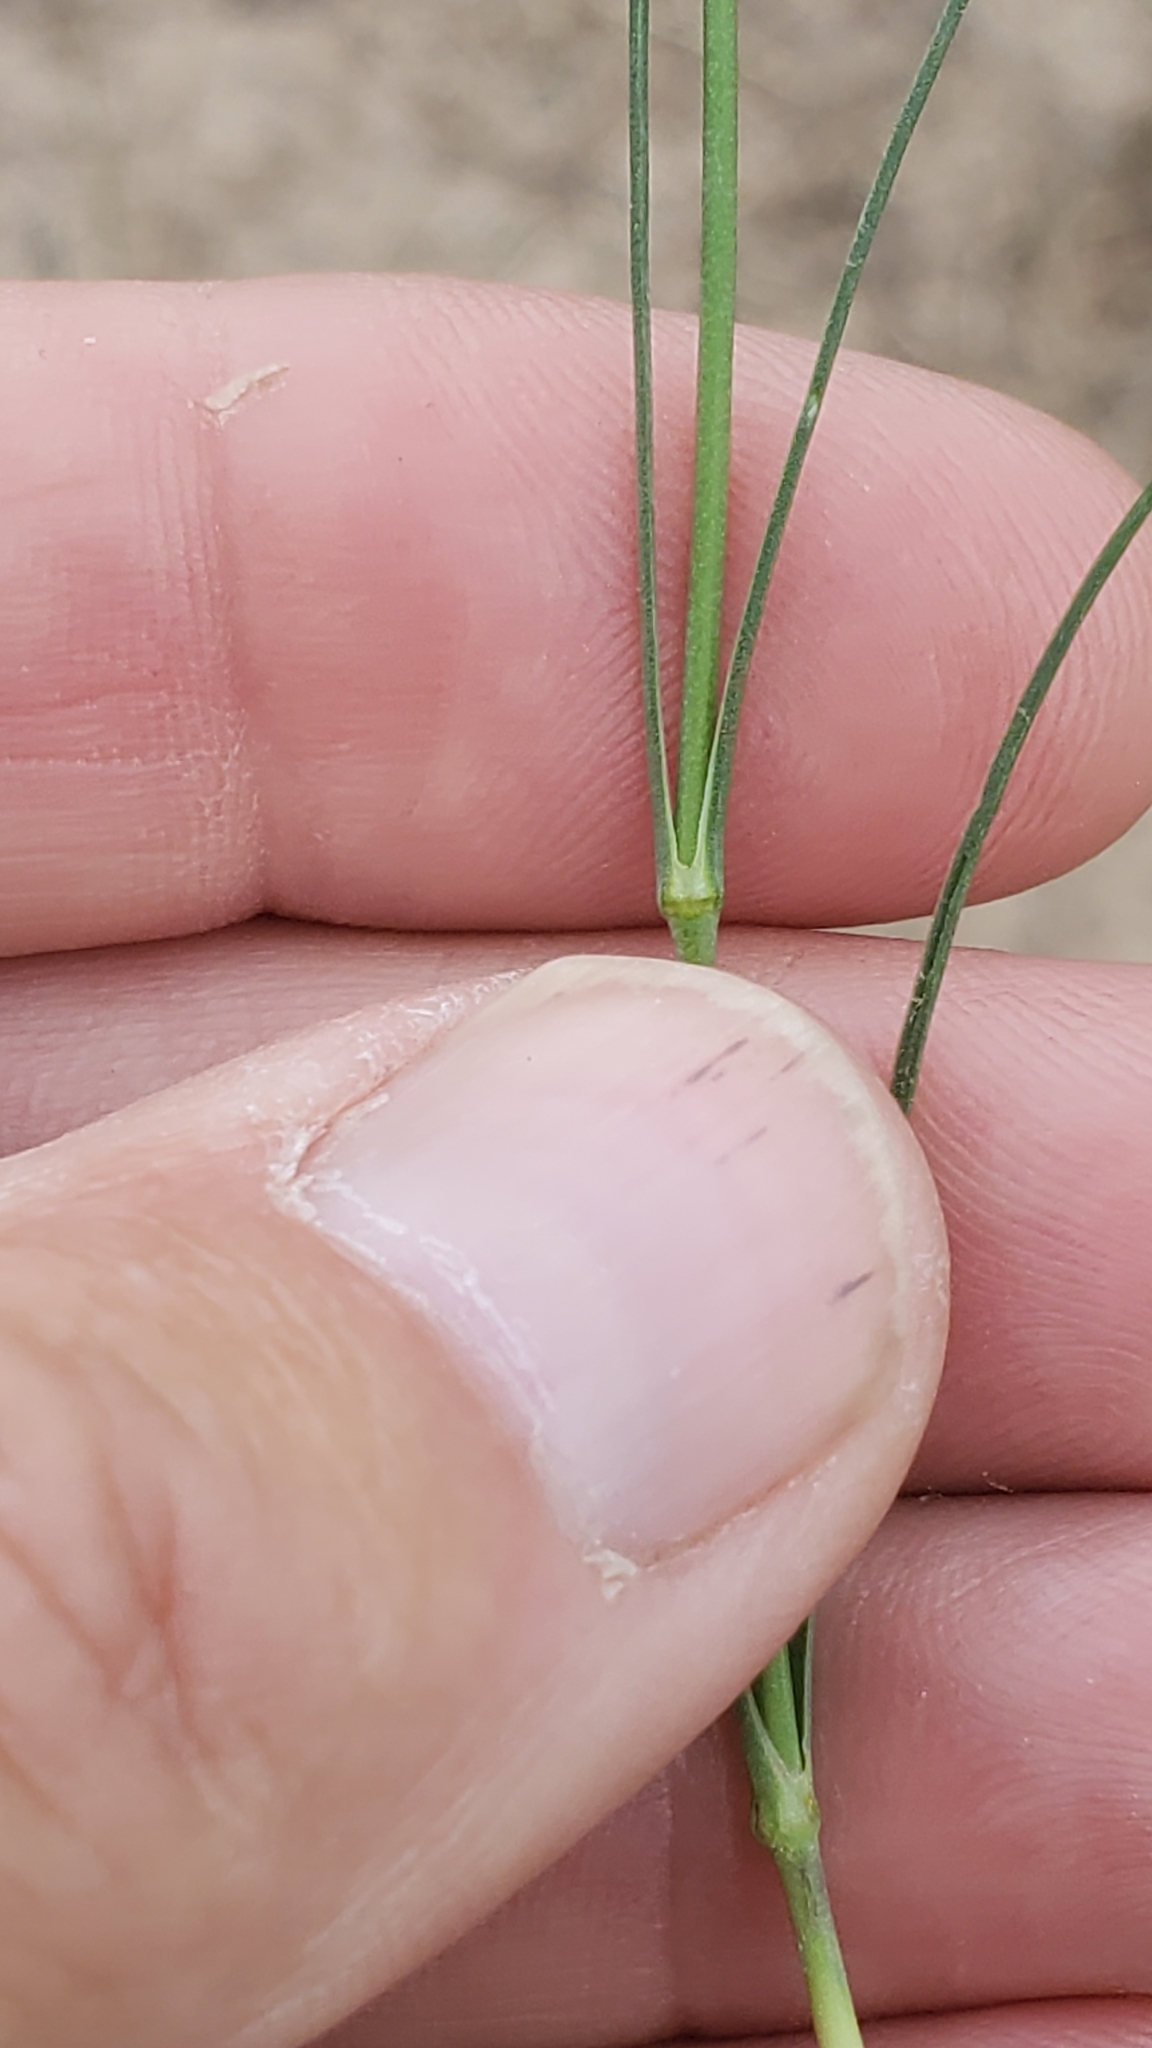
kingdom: Plantae
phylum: Tracheophyta
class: Magnoliopsida
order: Caryophyllales
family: Caryophyllaceae
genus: Eremogone
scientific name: Eremogone congesta
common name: Ballhead sandwort
